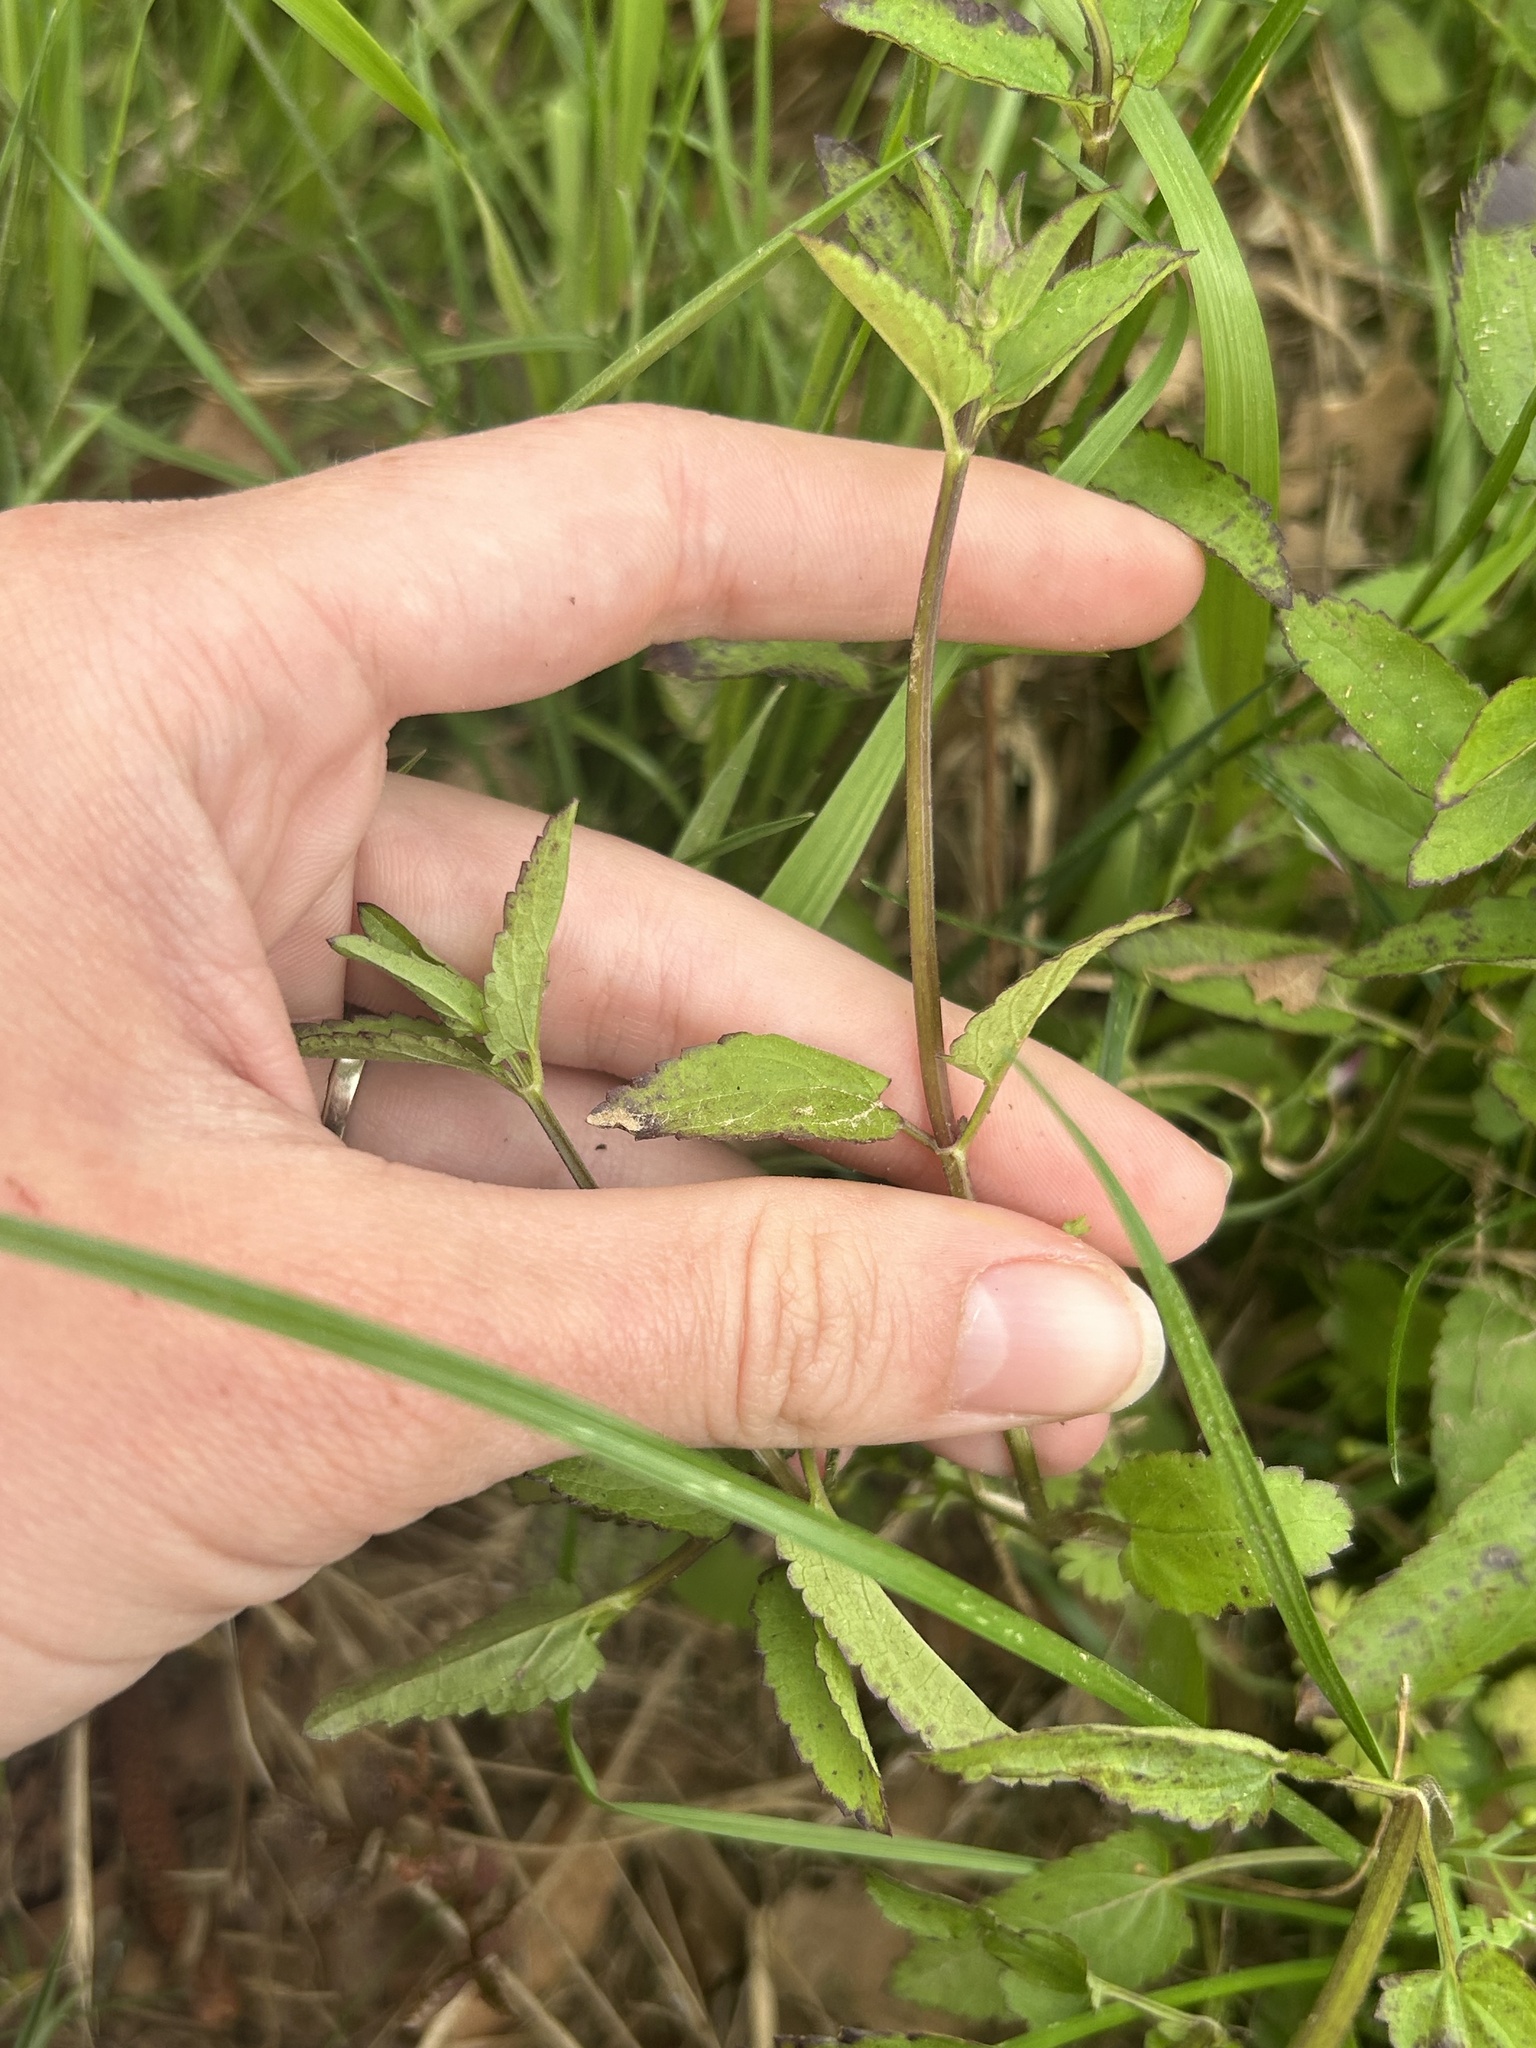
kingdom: Plantae
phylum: Tracheophyta
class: Magnoliopsida
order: Lamiales
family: Lamiaceae
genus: Stachys
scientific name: Stachys floridana
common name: Florida betony
